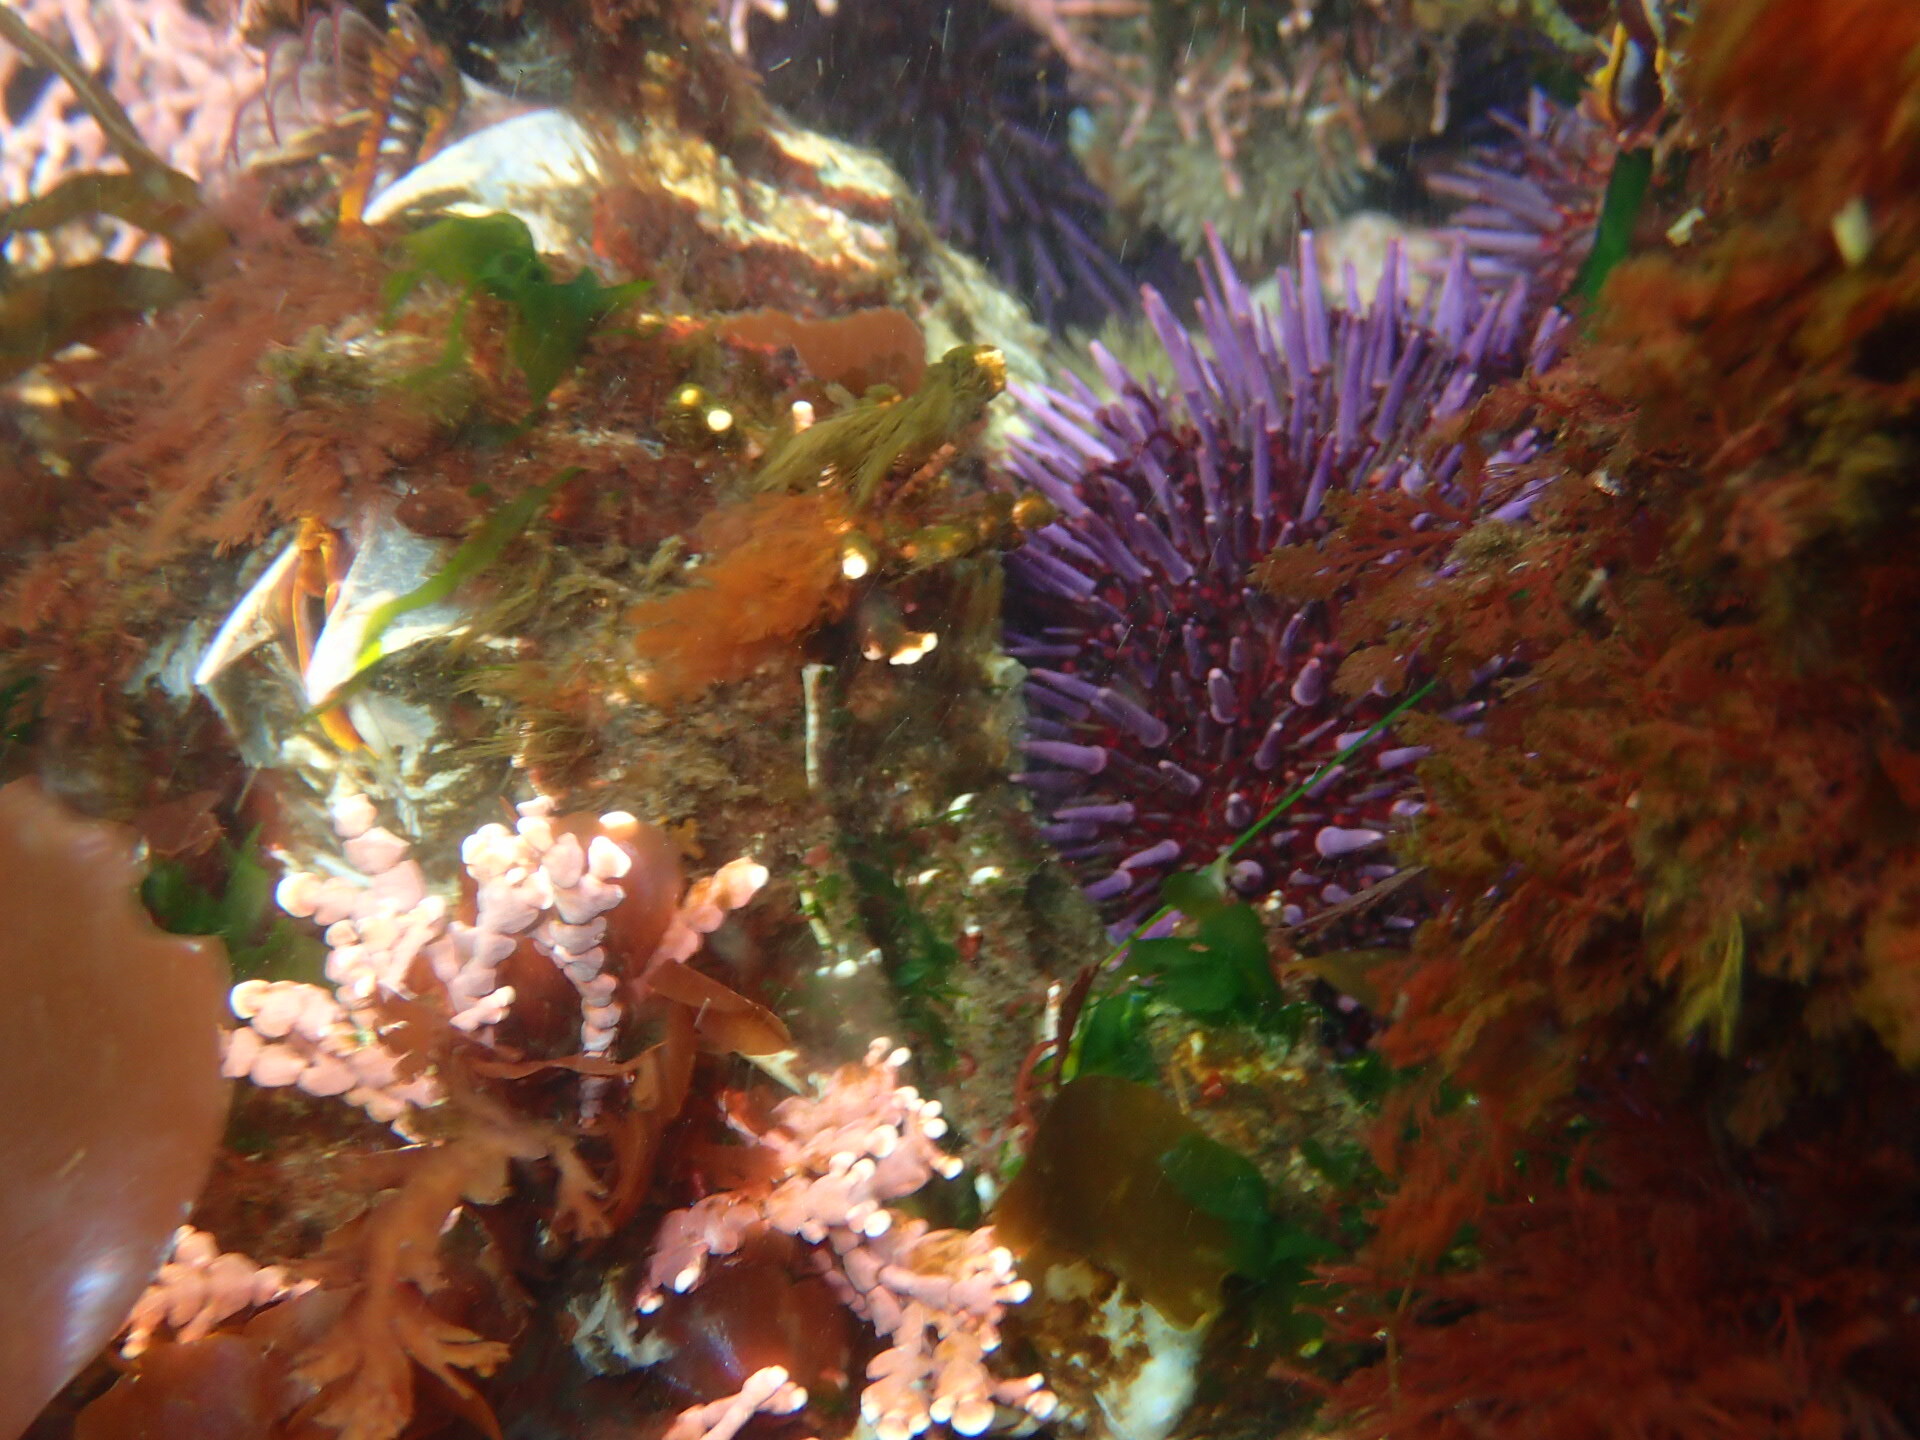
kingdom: Animalia
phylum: Echinodermata
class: Echinoidea
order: Camarodonta
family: Strongylocentrotidae
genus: Strongylocentrotus
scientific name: Strongylocentrotus purpuratus
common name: Purple sea urchin
